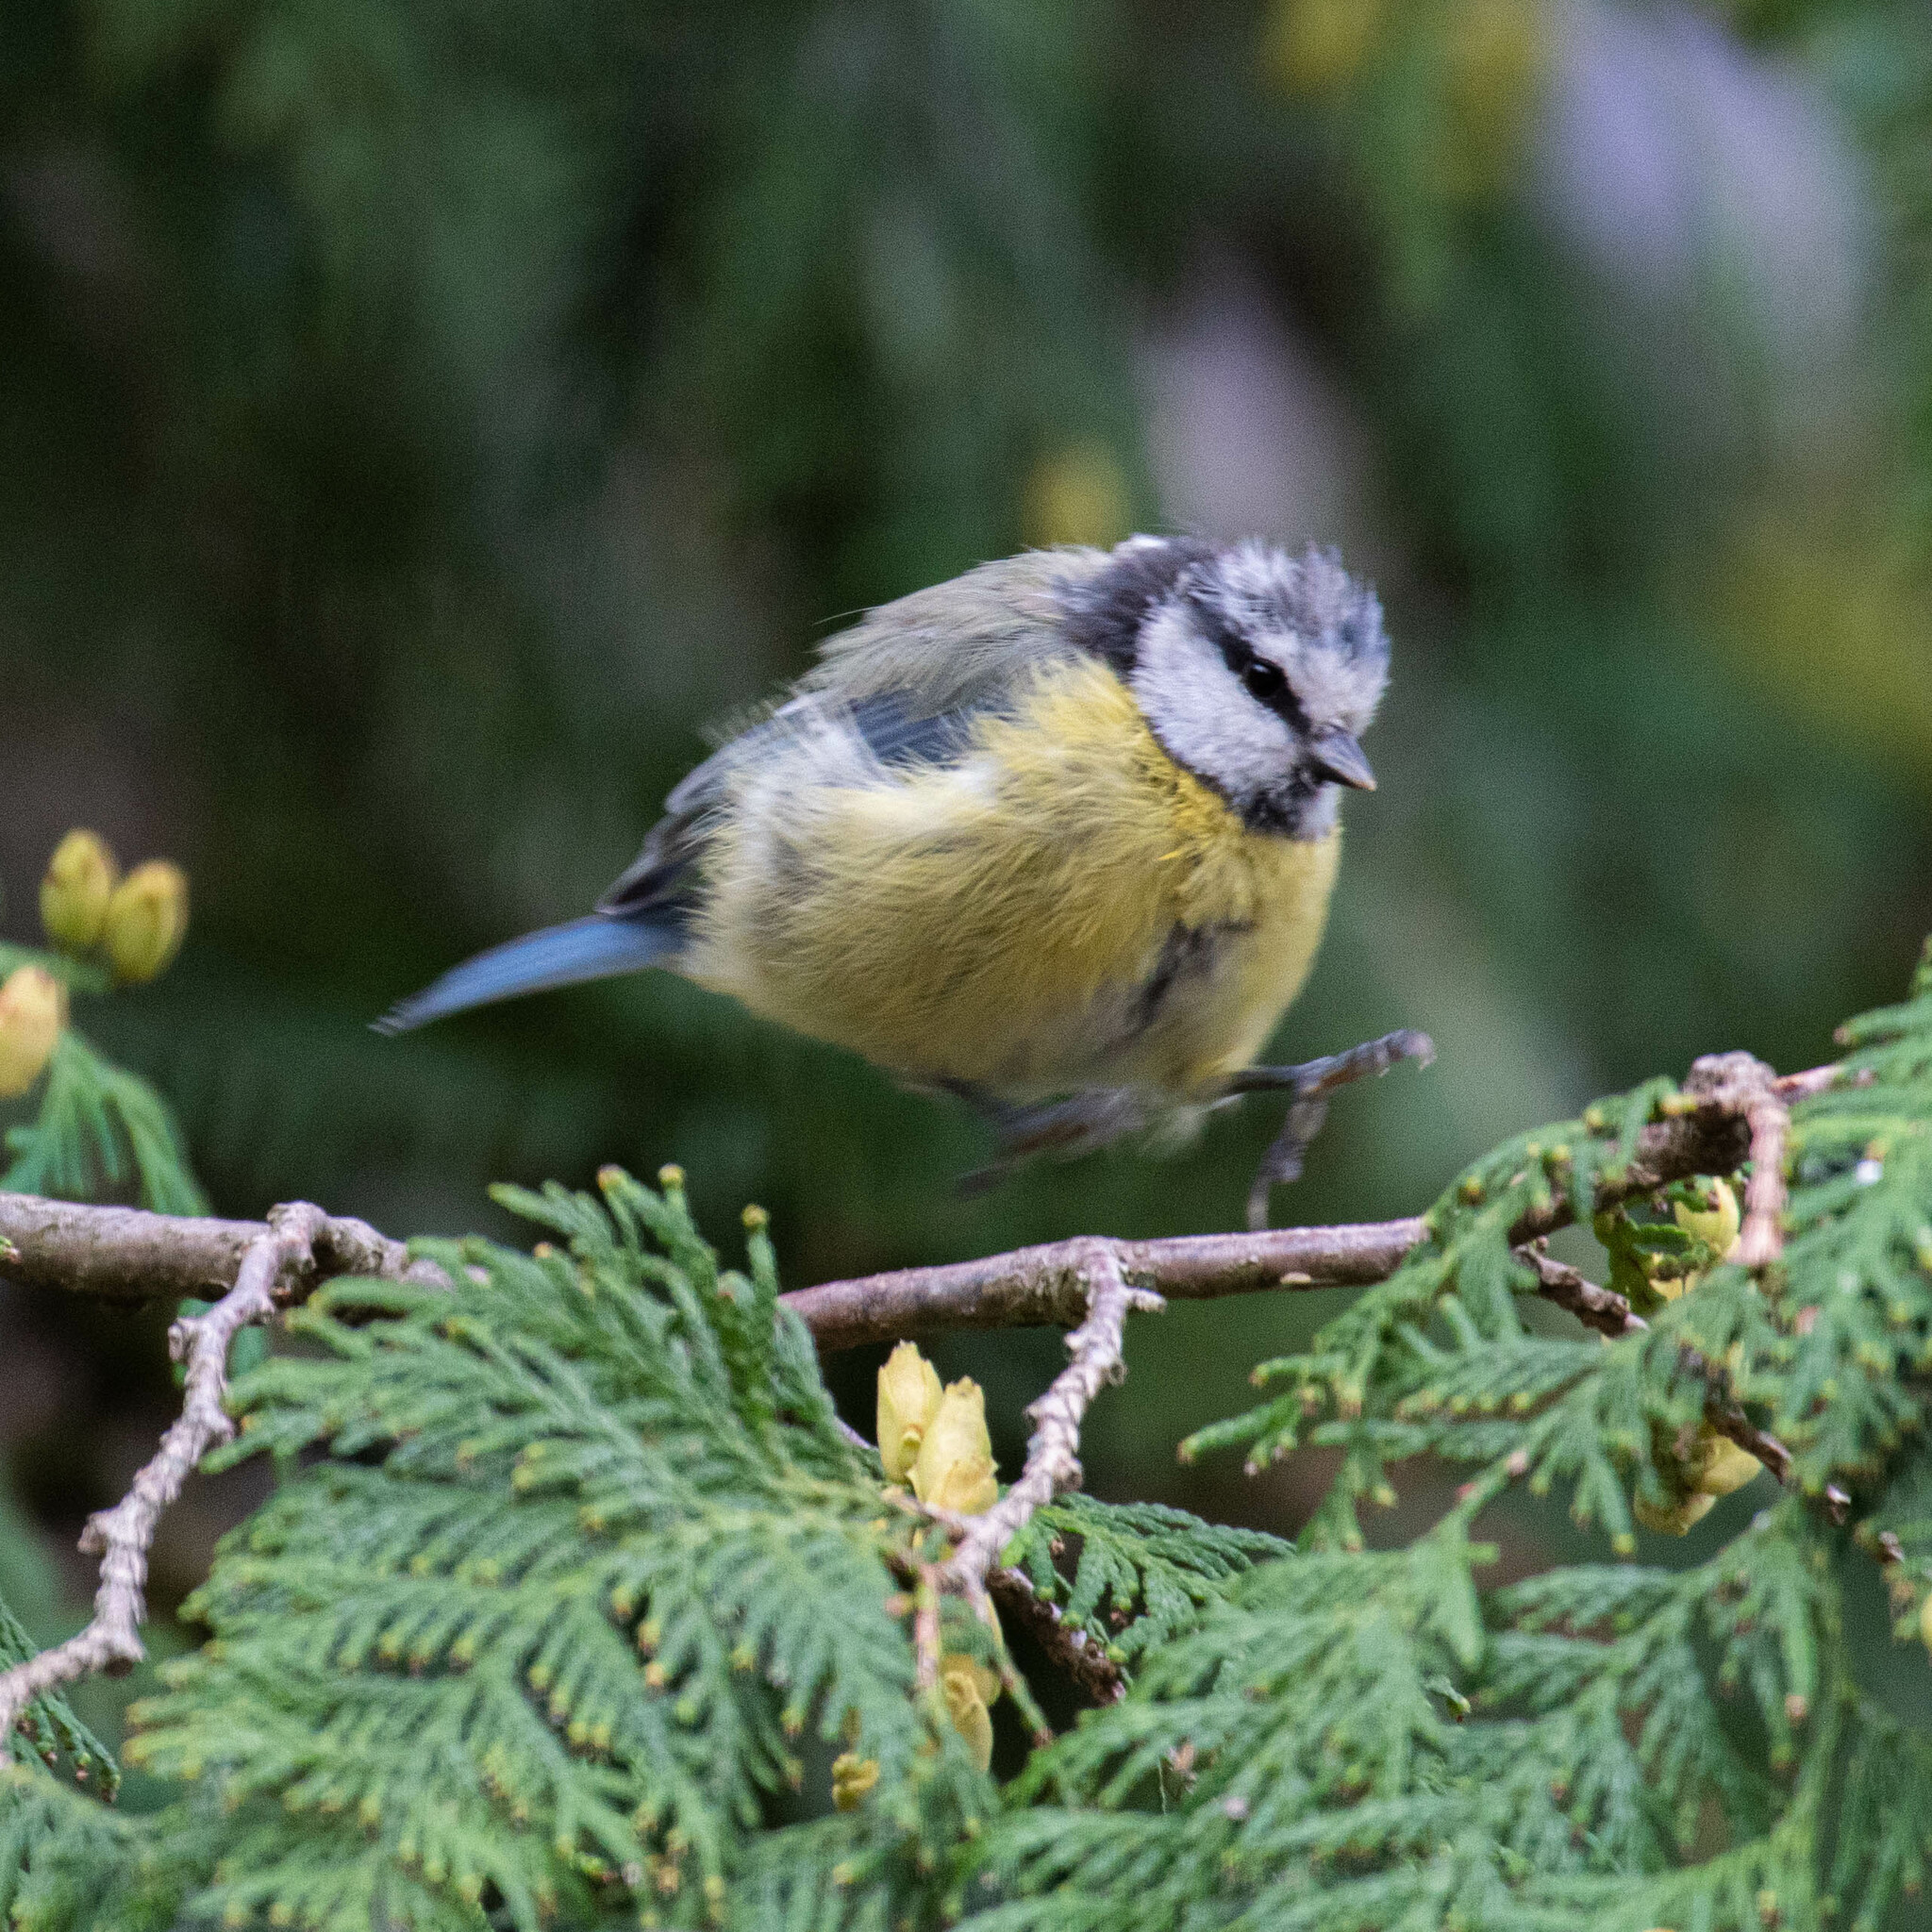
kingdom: Animalia
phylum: Chordata
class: Aves
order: Passeriformes
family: Paridae
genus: Cyanistes
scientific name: Cyanistes caeruleus
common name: Eurasian blue tit
